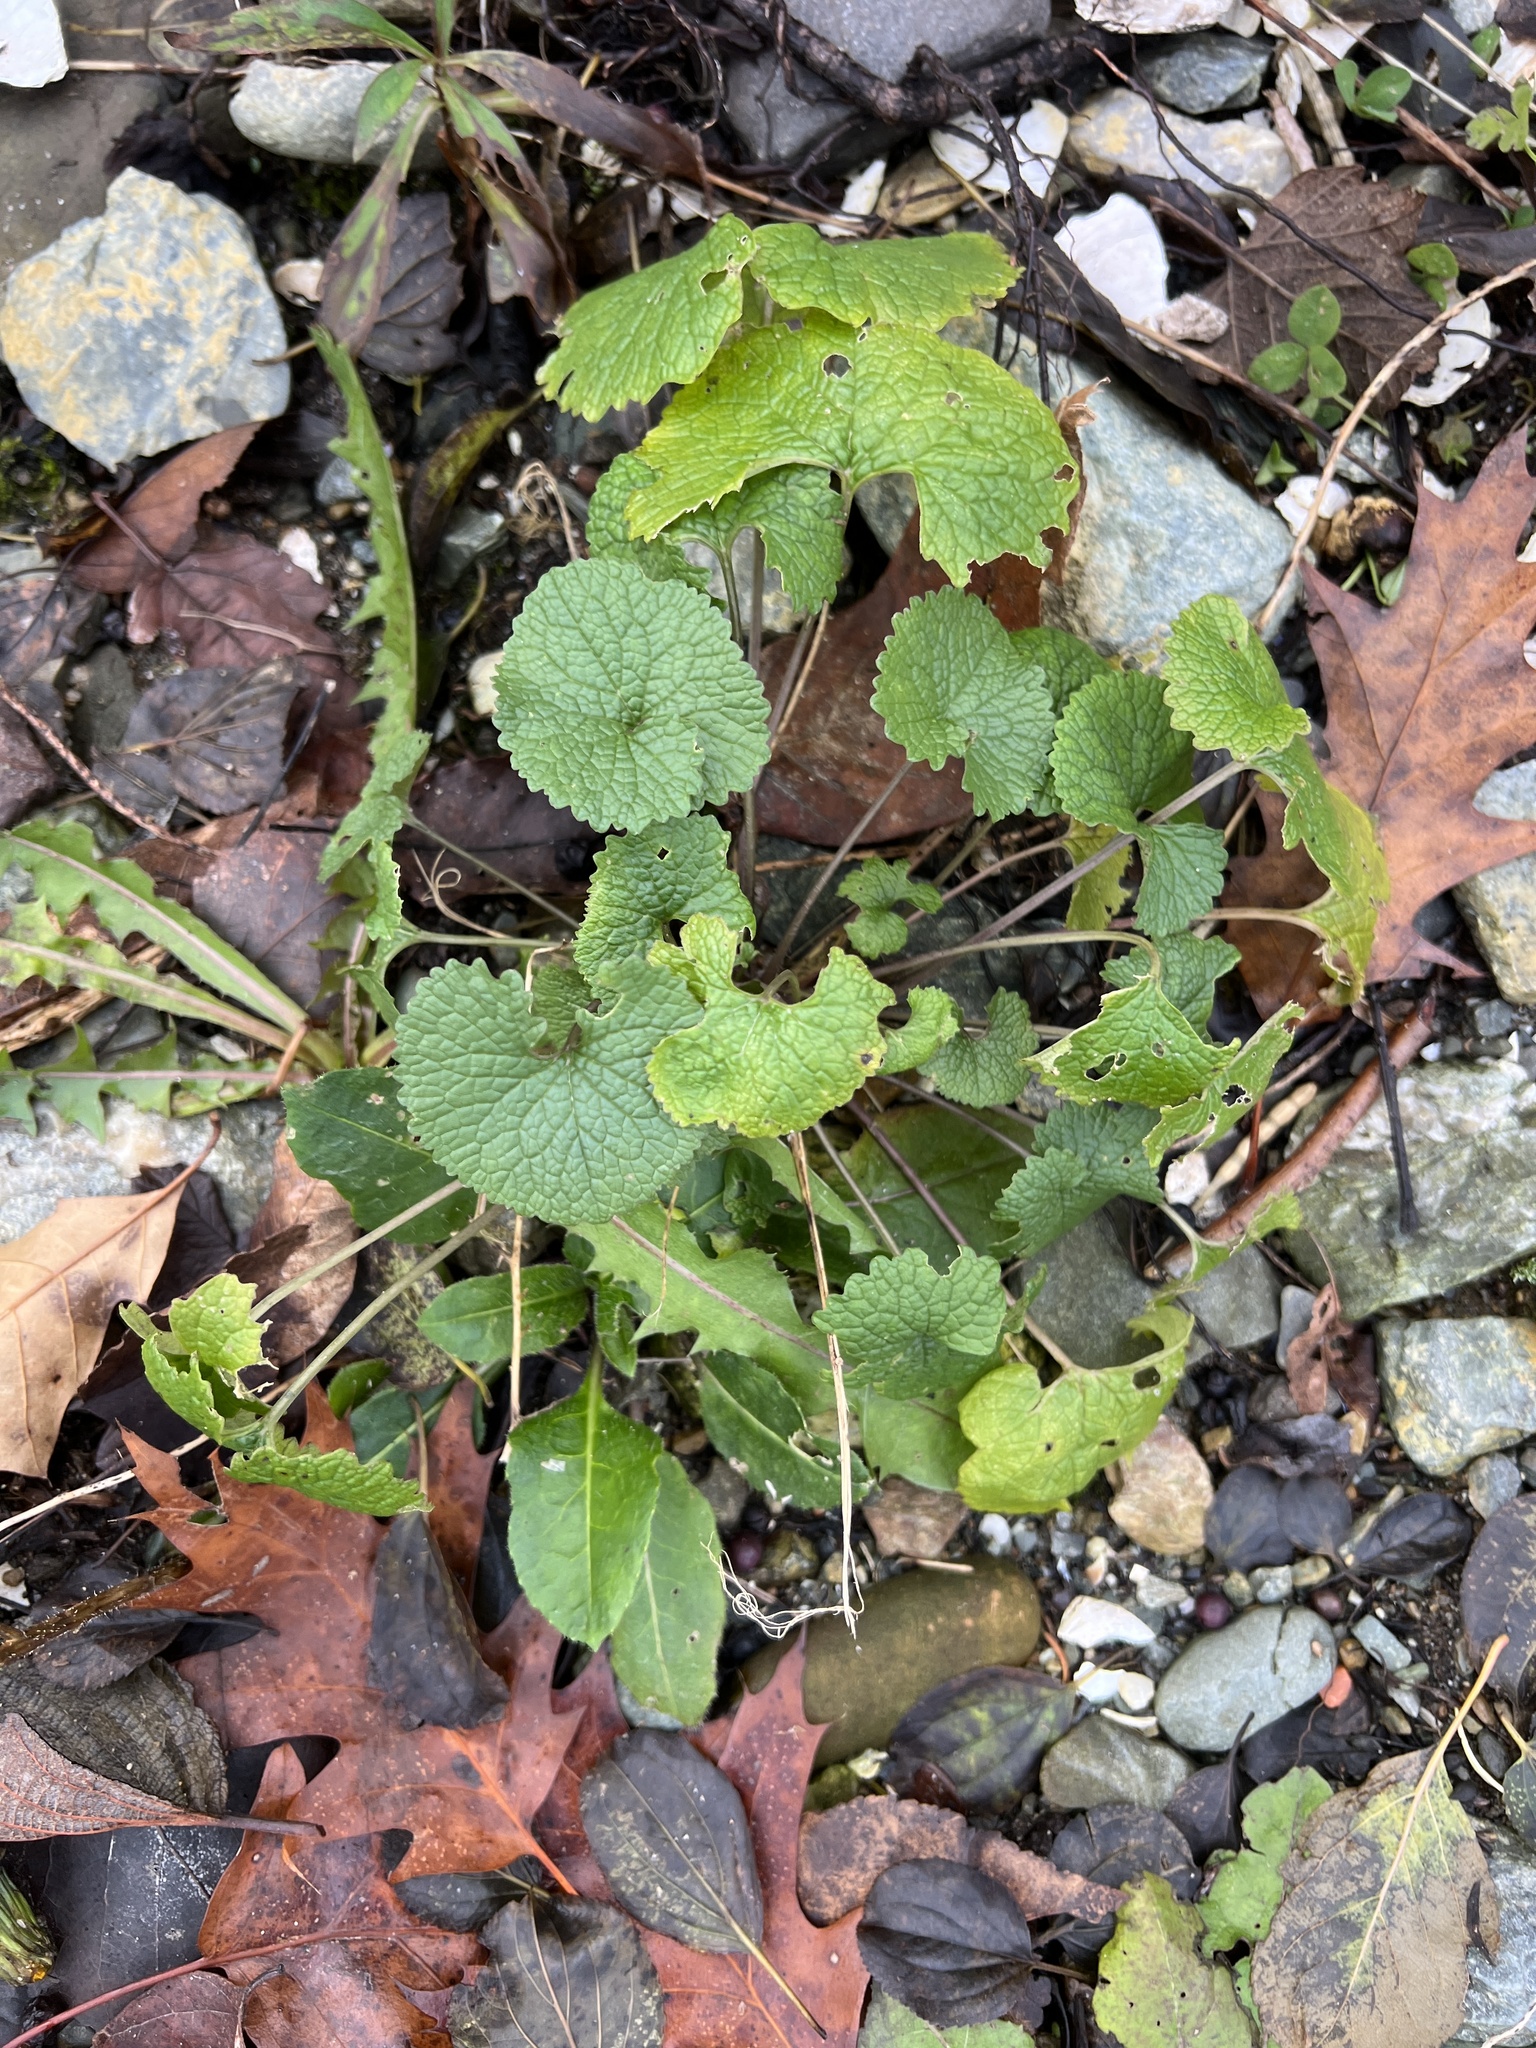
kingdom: Plantae
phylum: Tracheophyta
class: Magnoliopsida
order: Brassicales
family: Brassicaceae
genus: Alliaria
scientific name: Alliaria petiolata
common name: Garlic mustard
